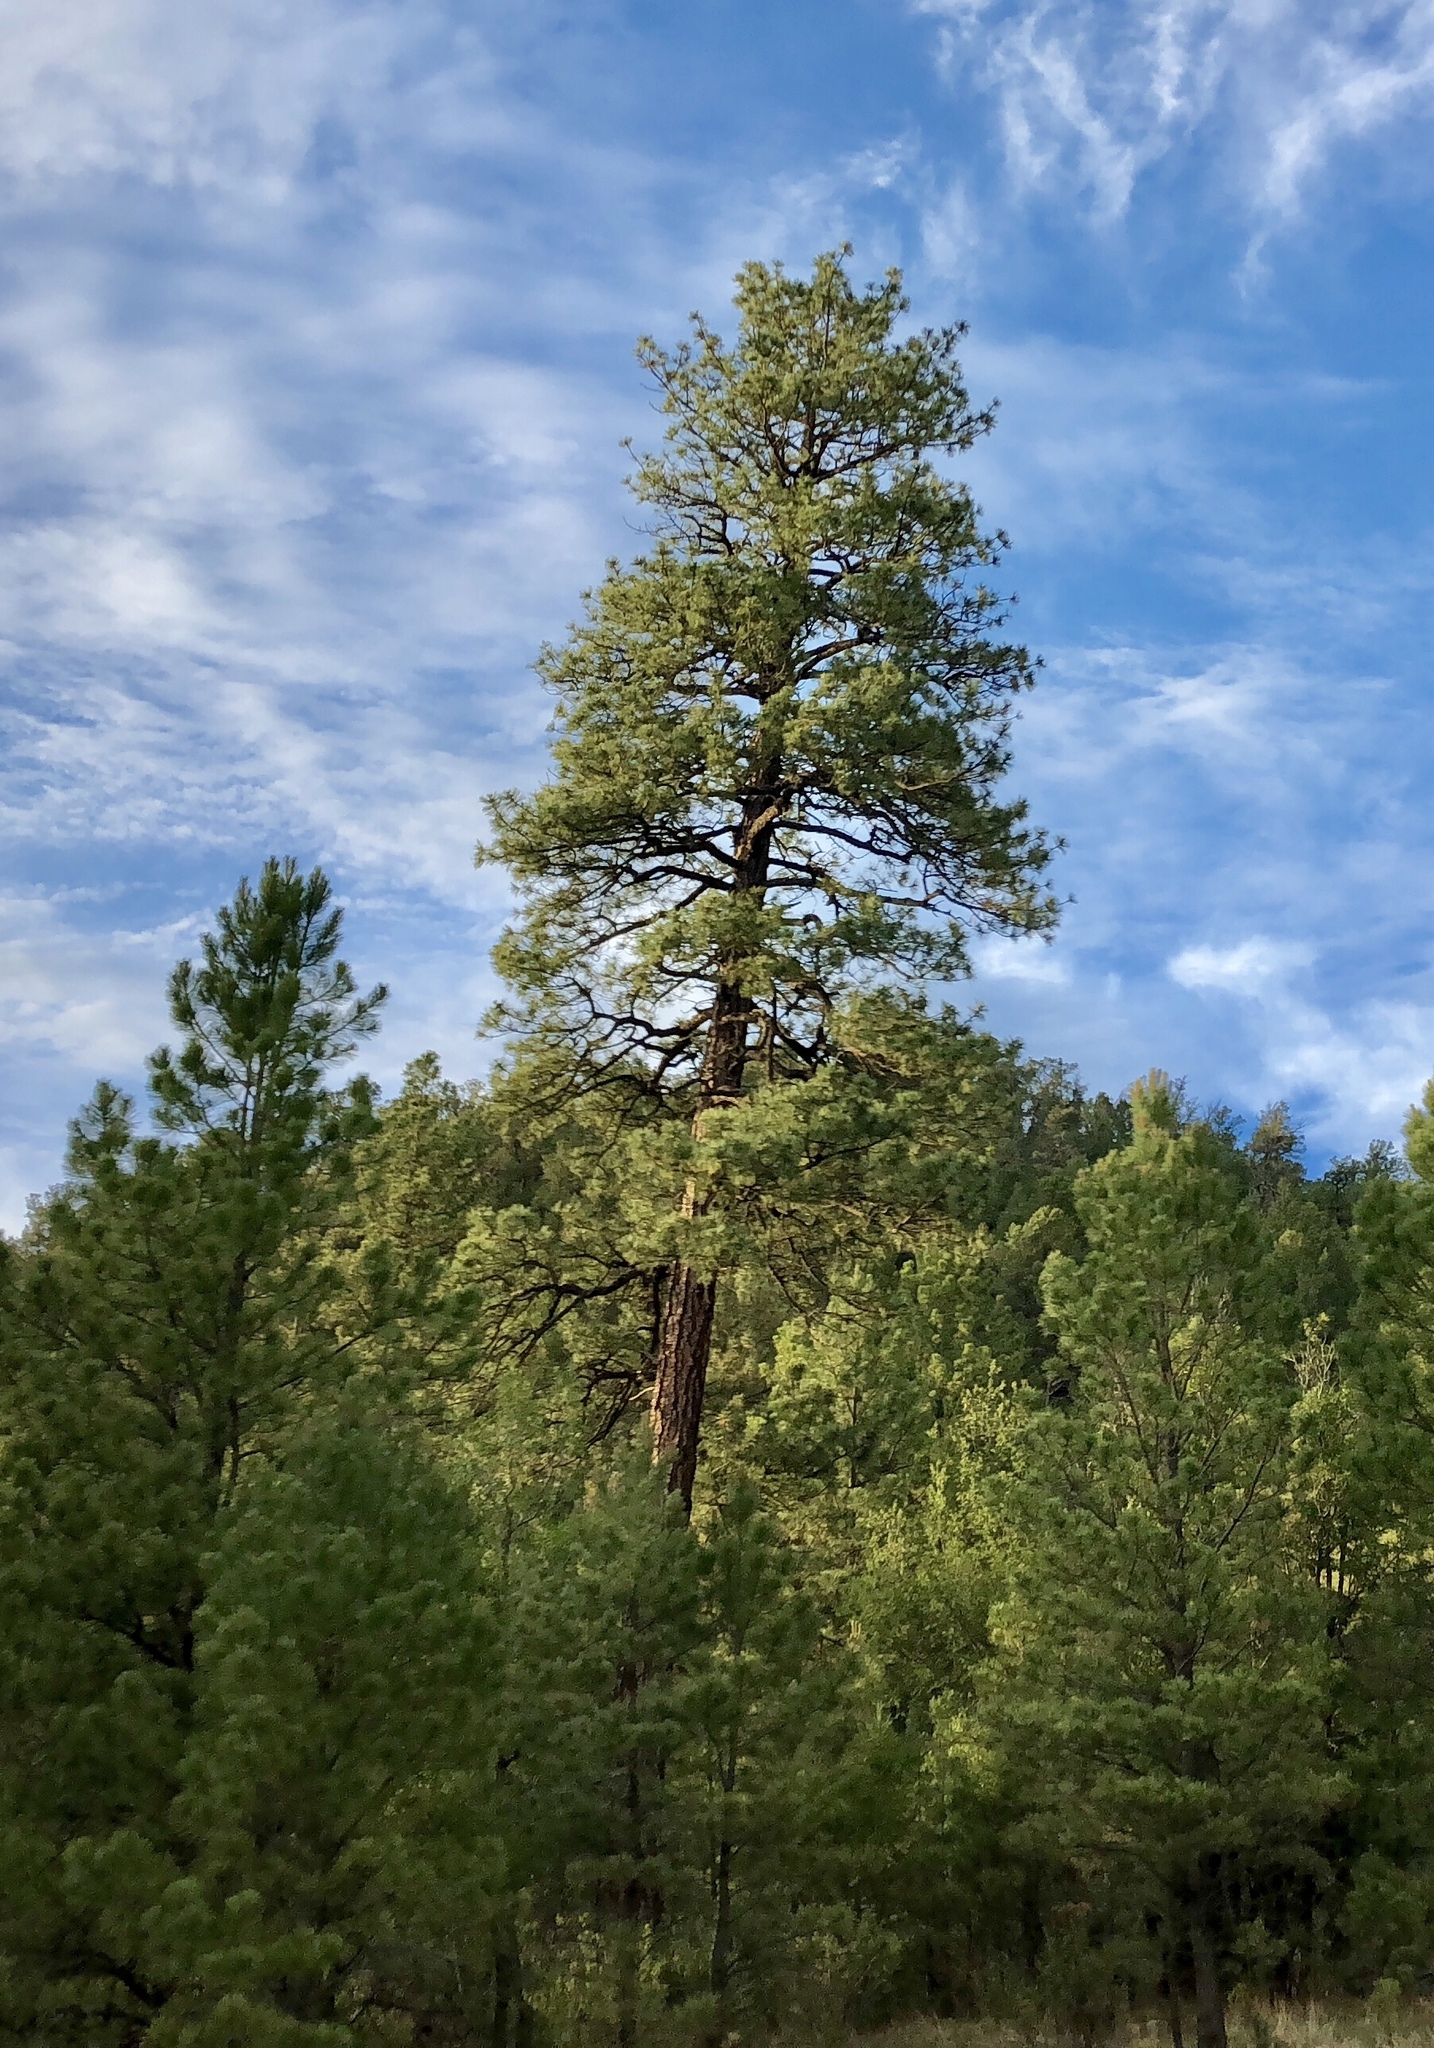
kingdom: Plantae
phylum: Tracheophyta
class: Pinopsida
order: Pinales
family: Pinaceae
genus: Pinus
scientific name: Pinus ponderosa
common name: Western yellow-pine
